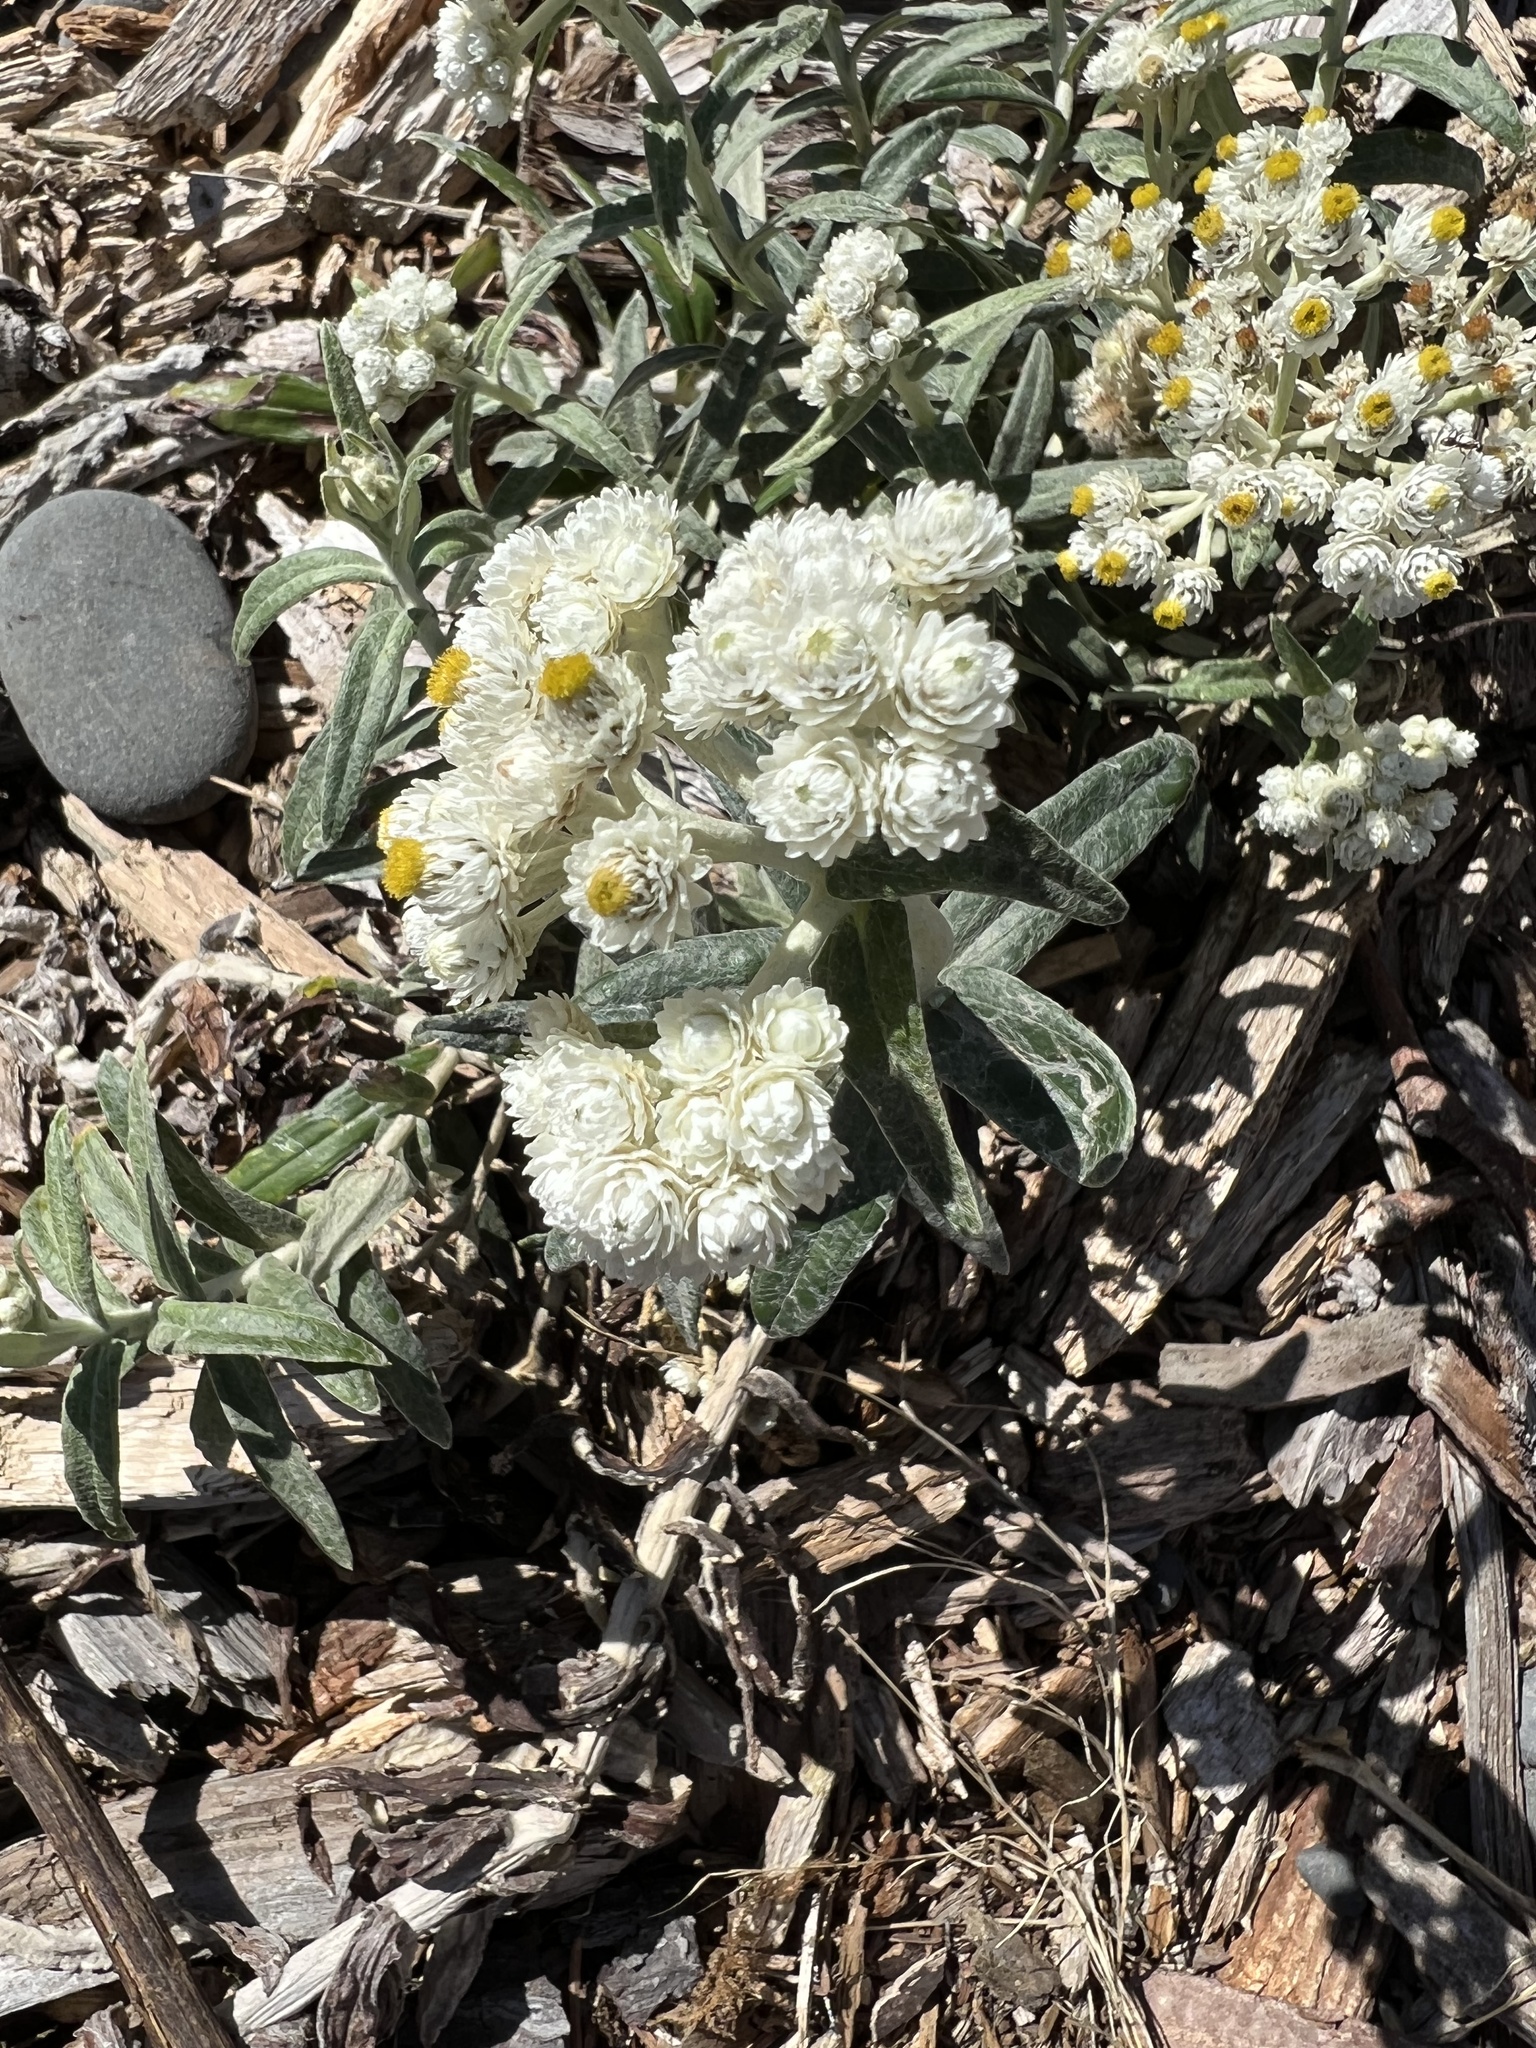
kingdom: Plantae
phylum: Tracheophyta
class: Magnoliopsida
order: Asterales
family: Asteraceae
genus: Anaphalis
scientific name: Anaphalis margaritacea
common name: Pearly everlasting
